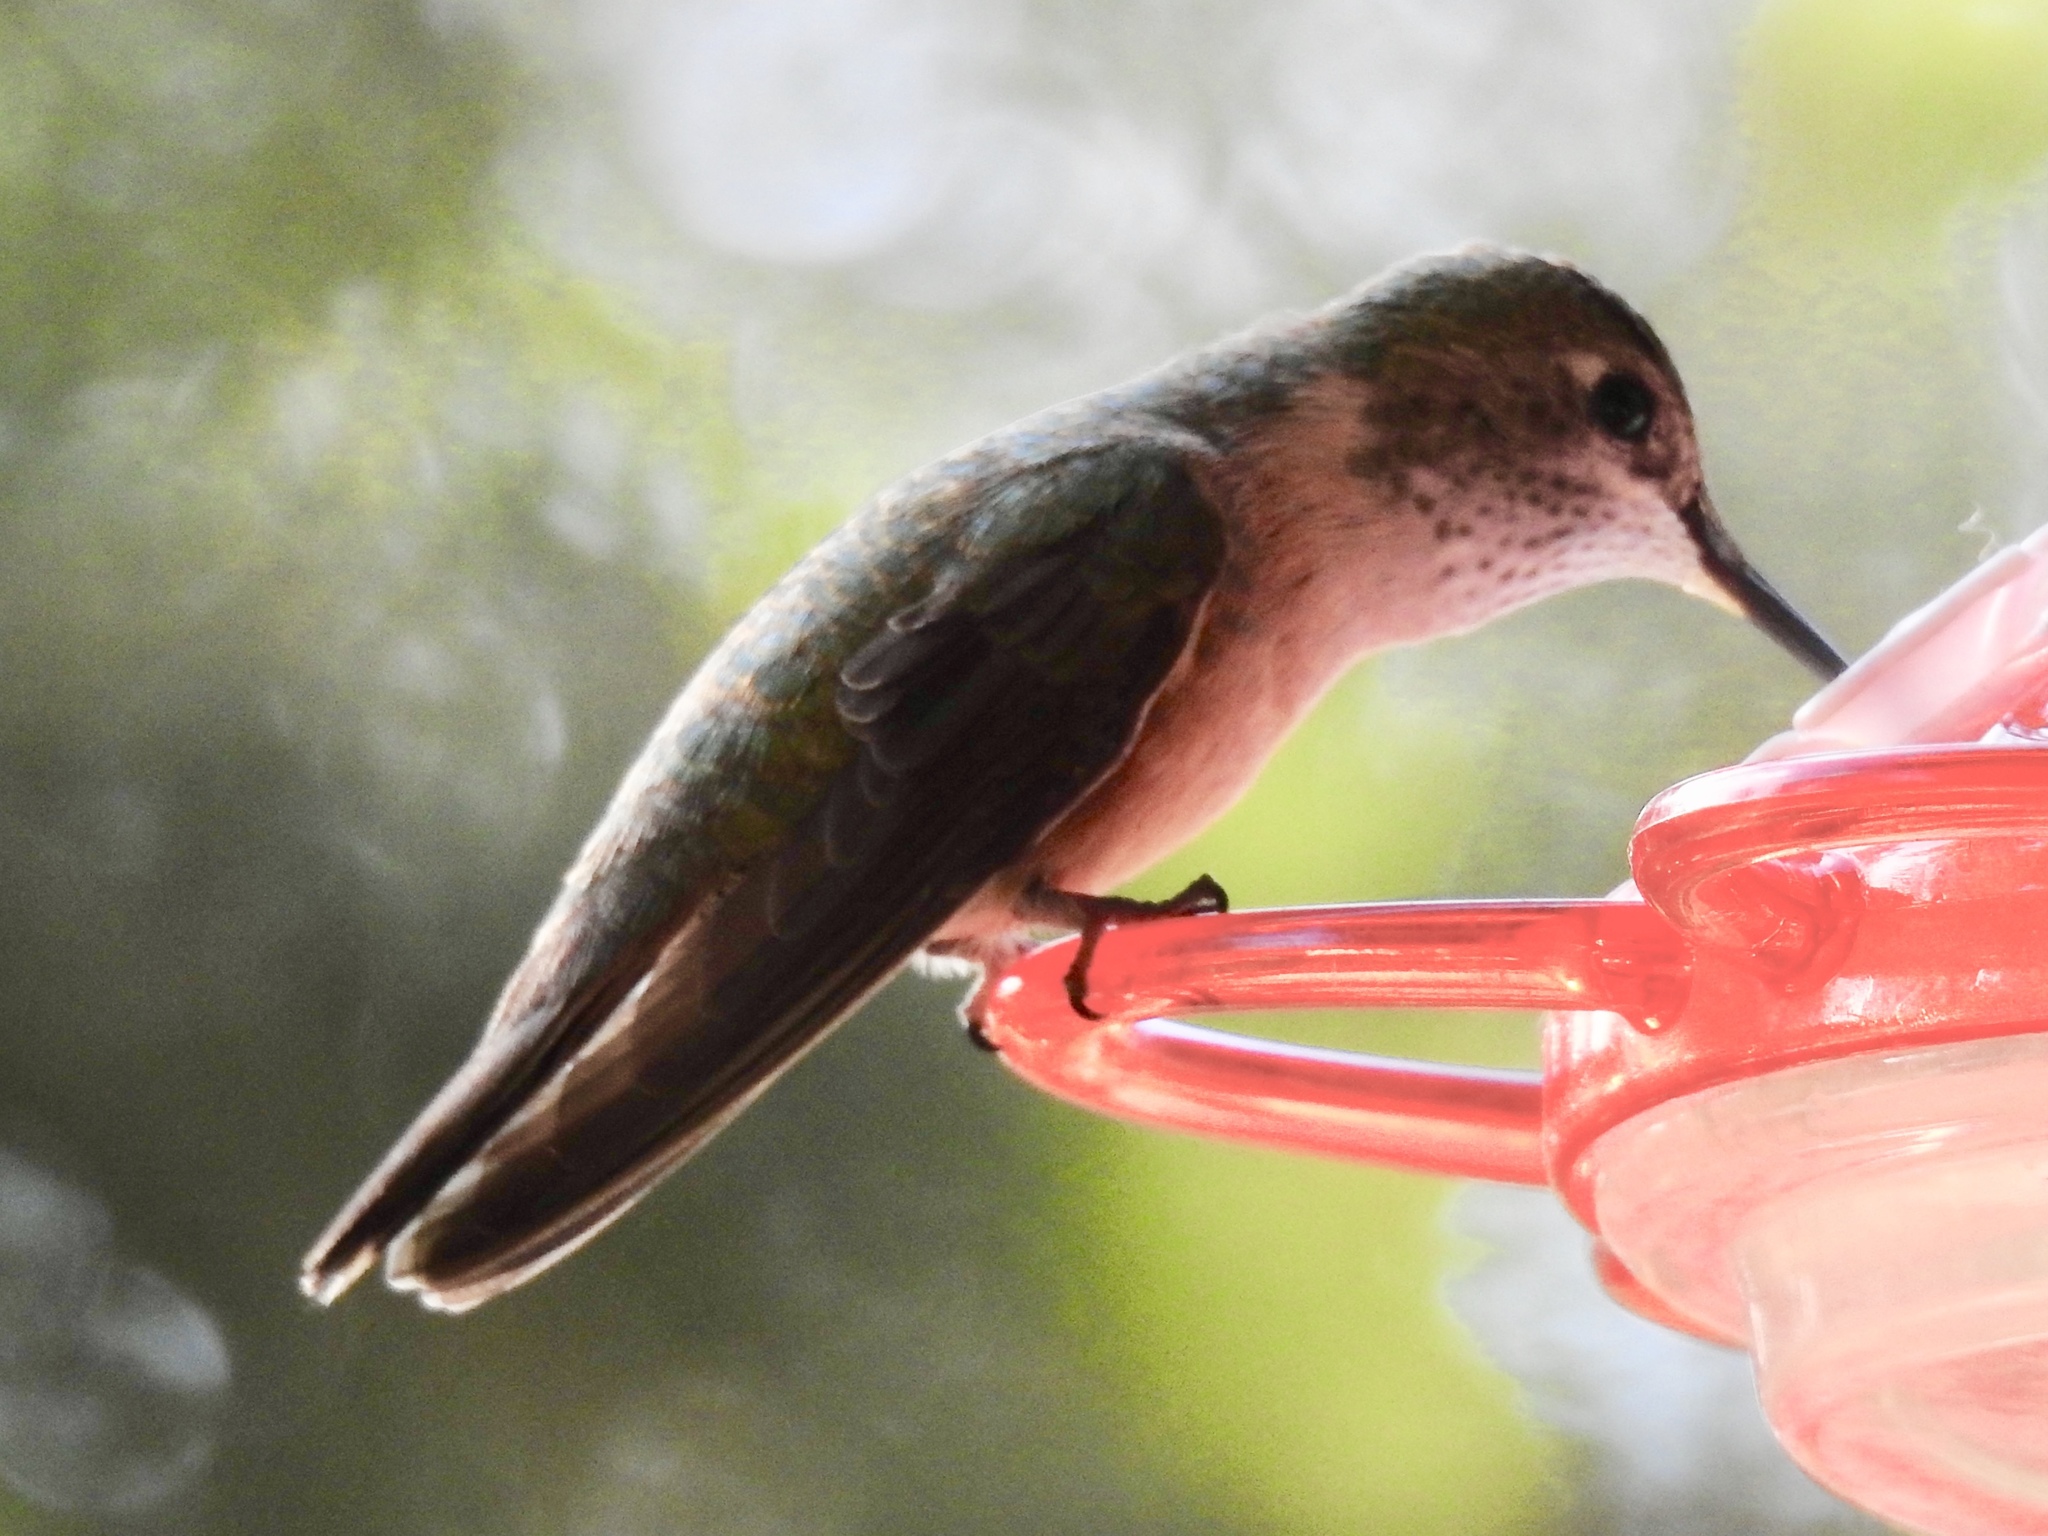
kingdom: Animalia
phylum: Chordata
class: Aves
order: Apodiformes
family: Trochilidae
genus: Selasphorus
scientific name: Selasphorus platycercus
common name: Broad-tailed hummingbird
